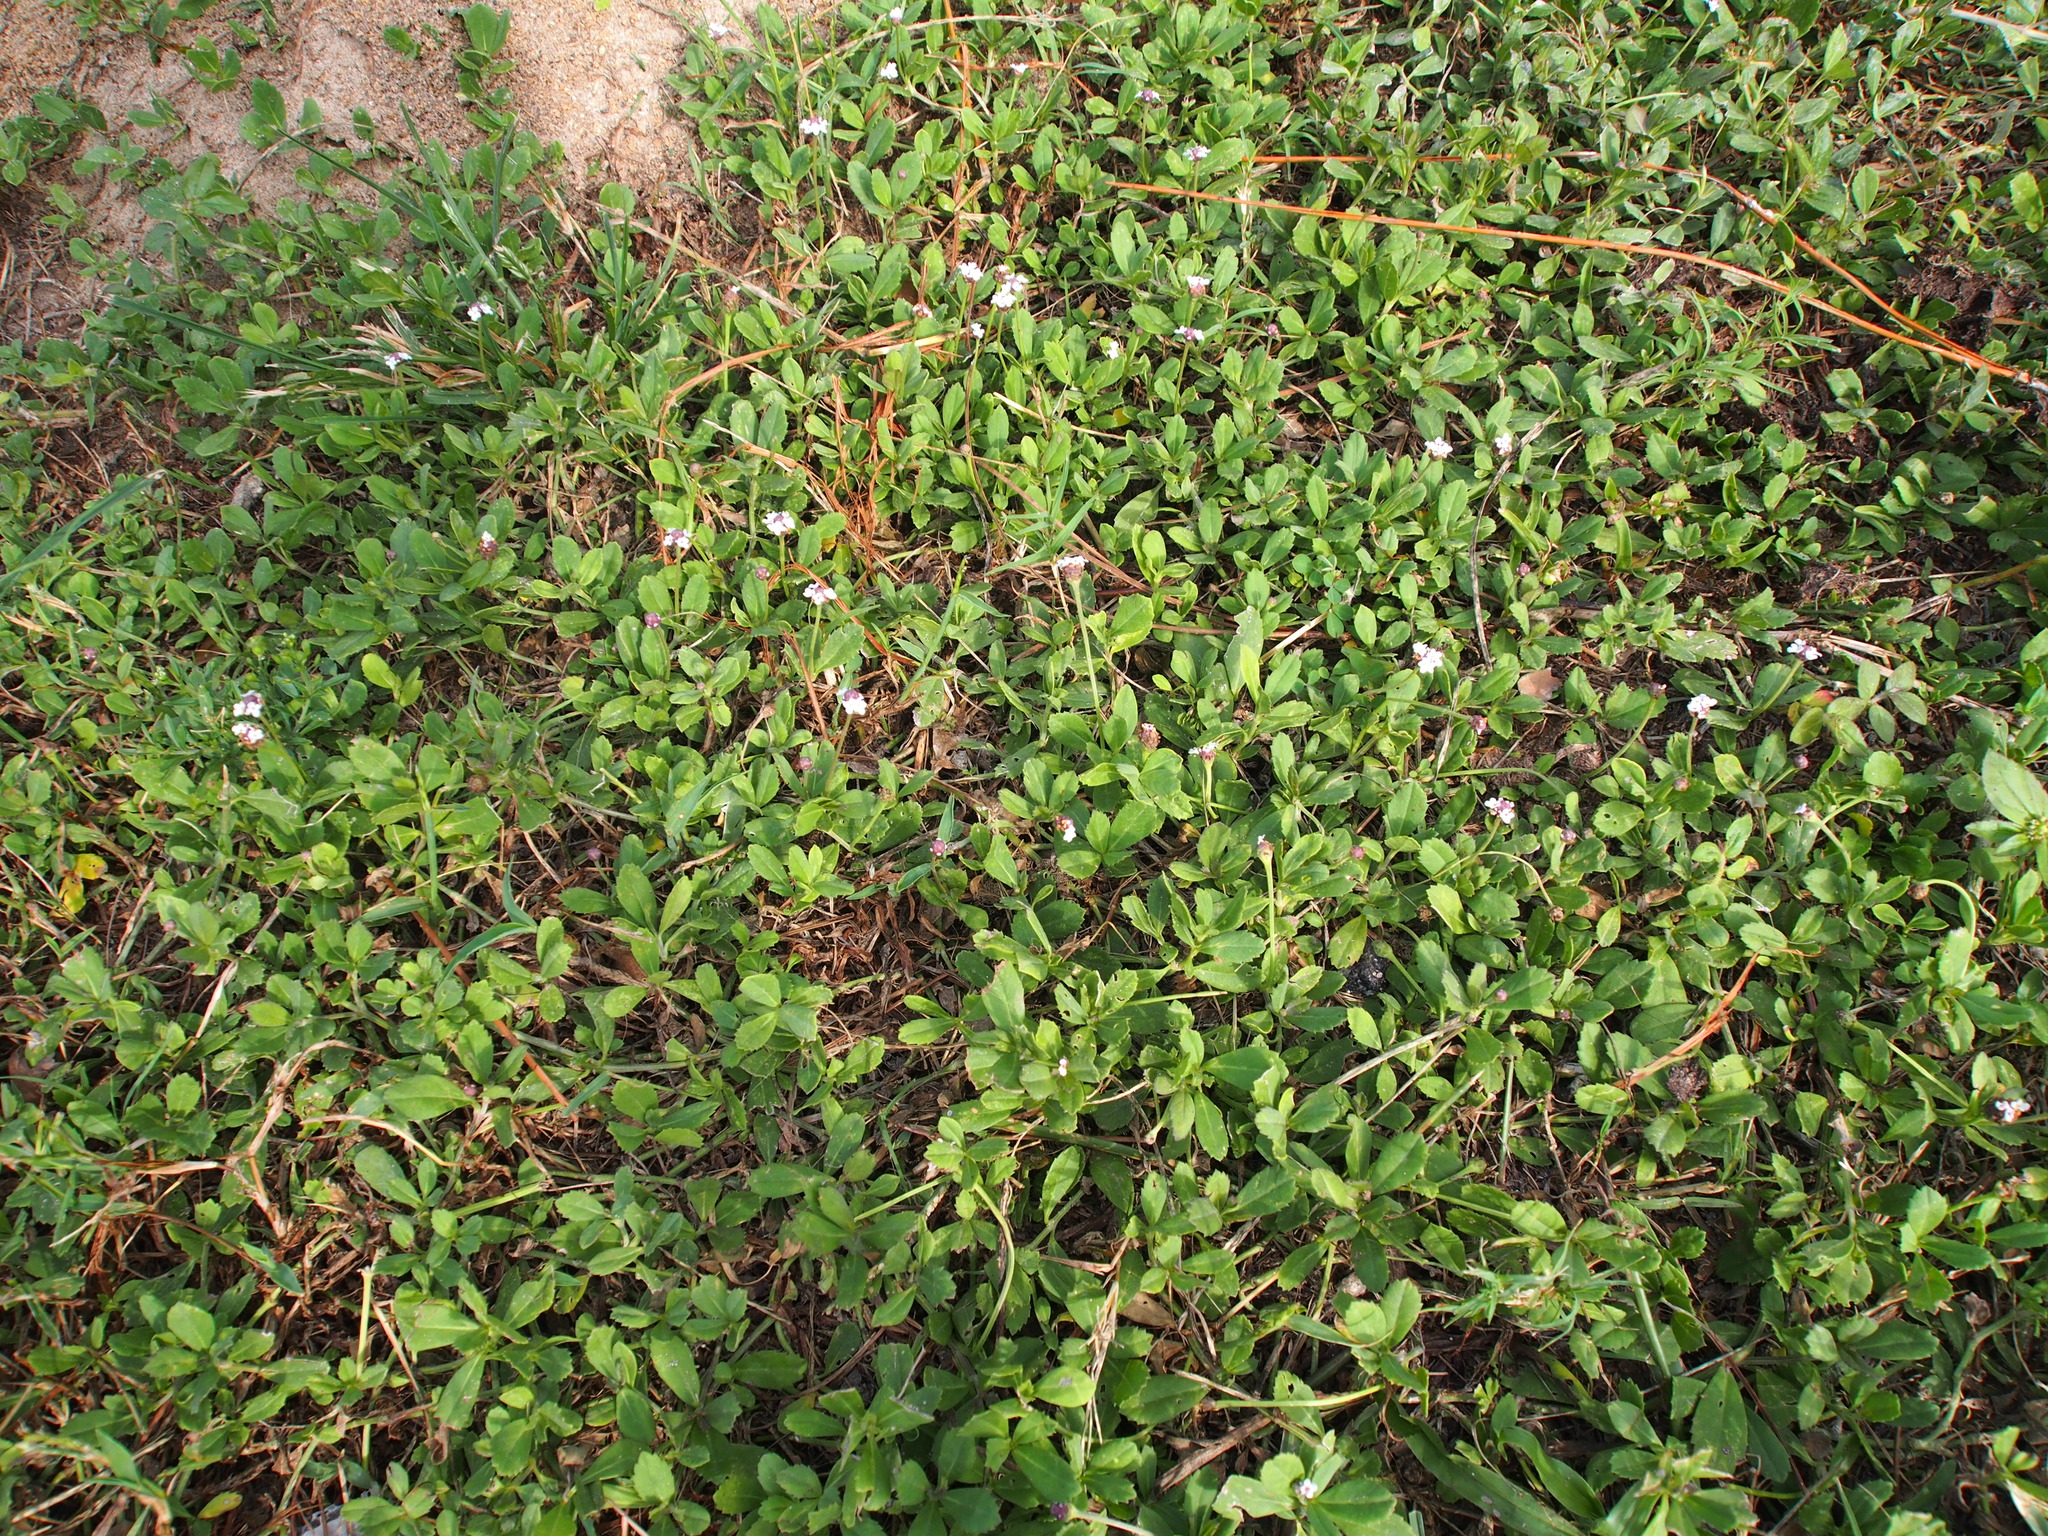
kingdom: Plantae
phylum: Tracheophyta
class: Magnoliopsida
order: Lamiales
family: Verbenaceae
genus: Phyla
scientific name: Phyla nodiflora
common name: Frogfruit
